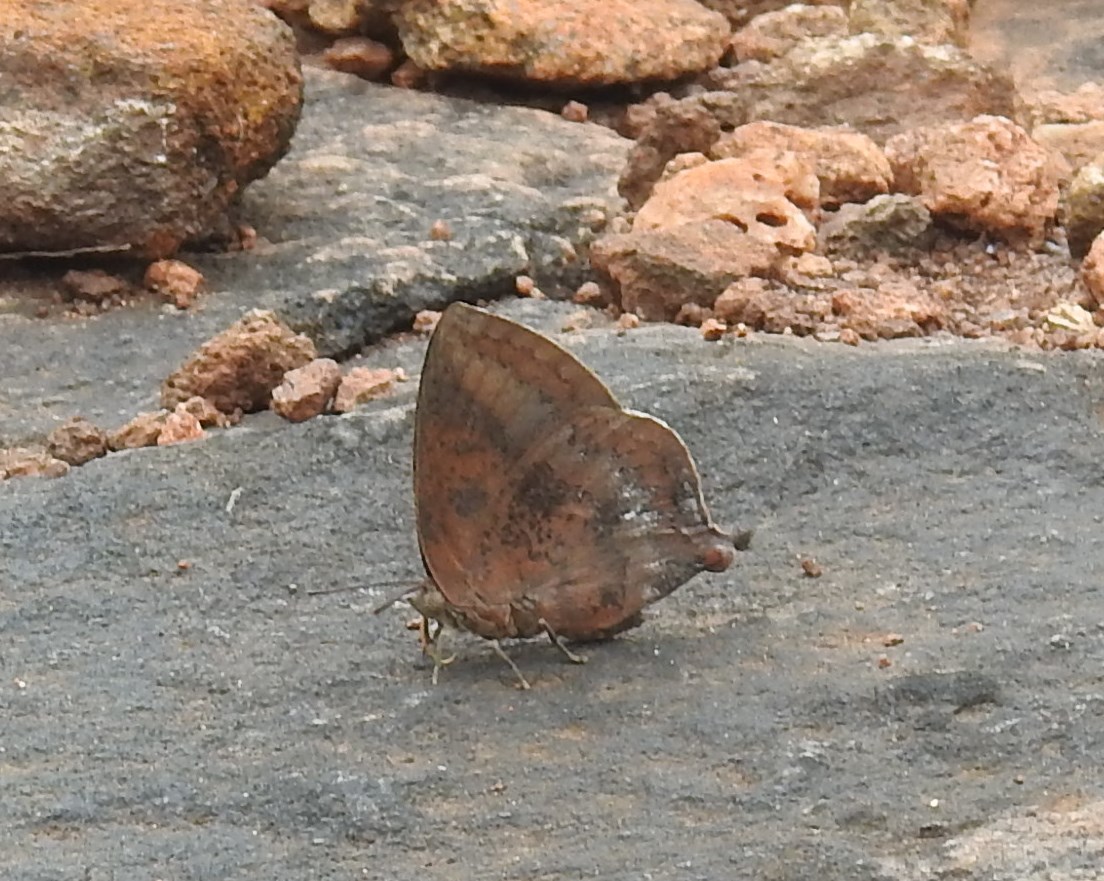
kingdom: Animalia
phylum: Arthropoda
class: Insecta
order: Lepidoptera
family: Lycaenidae
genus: Amblypodia
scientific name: Amblypodia anita
